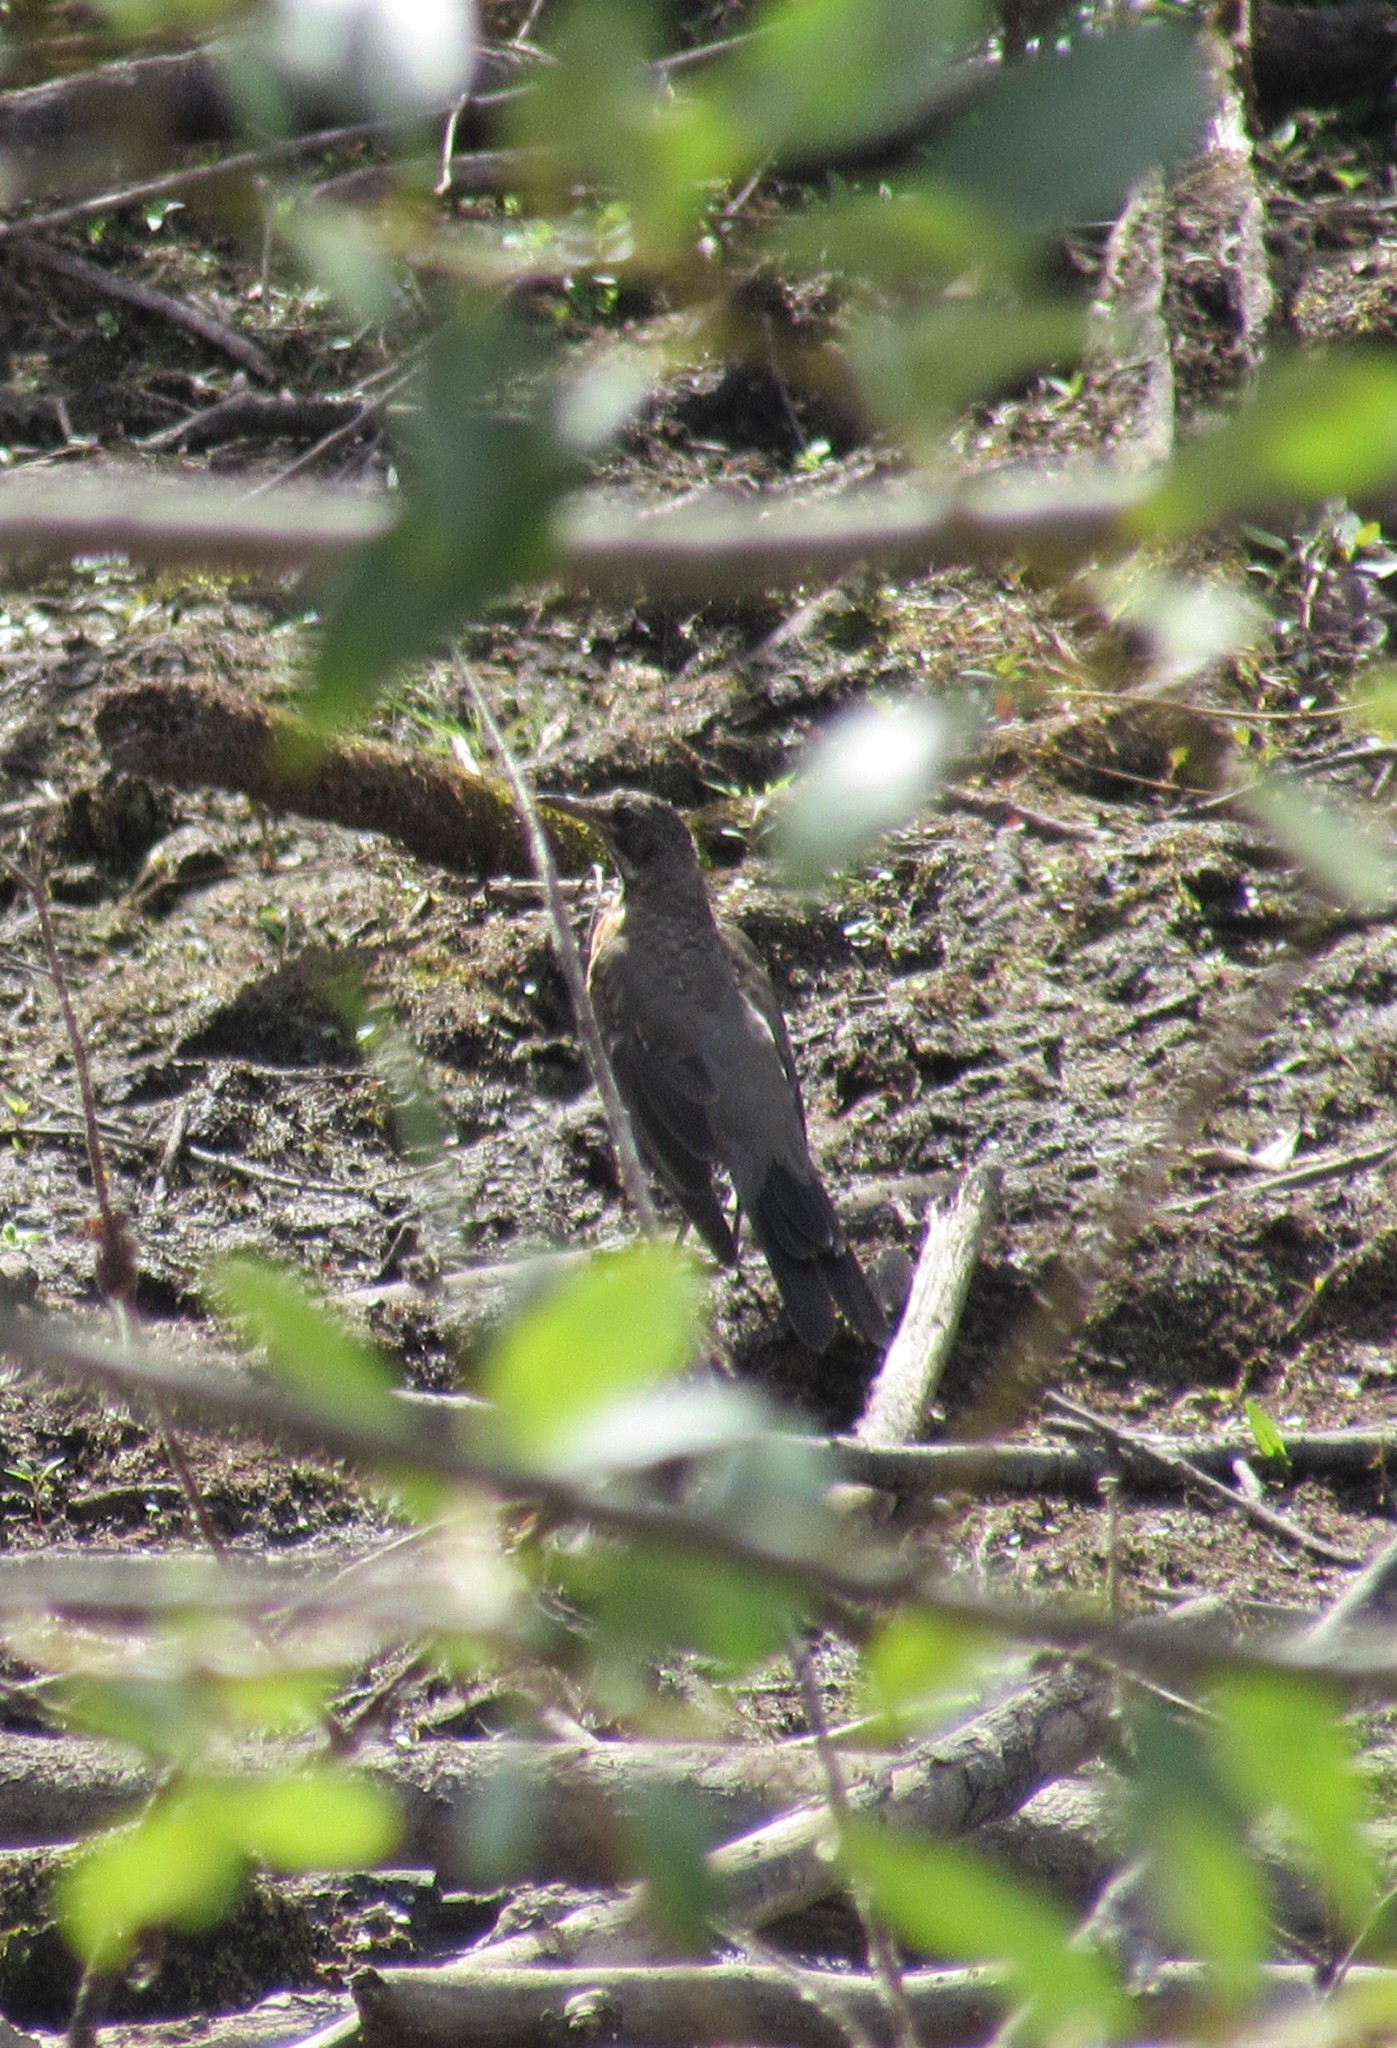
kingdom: Animalia
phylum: Chordata
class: Aves
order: Passeriformes
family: Turdidae
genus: Turdus
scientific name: Turdus migratorius
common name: American robin
